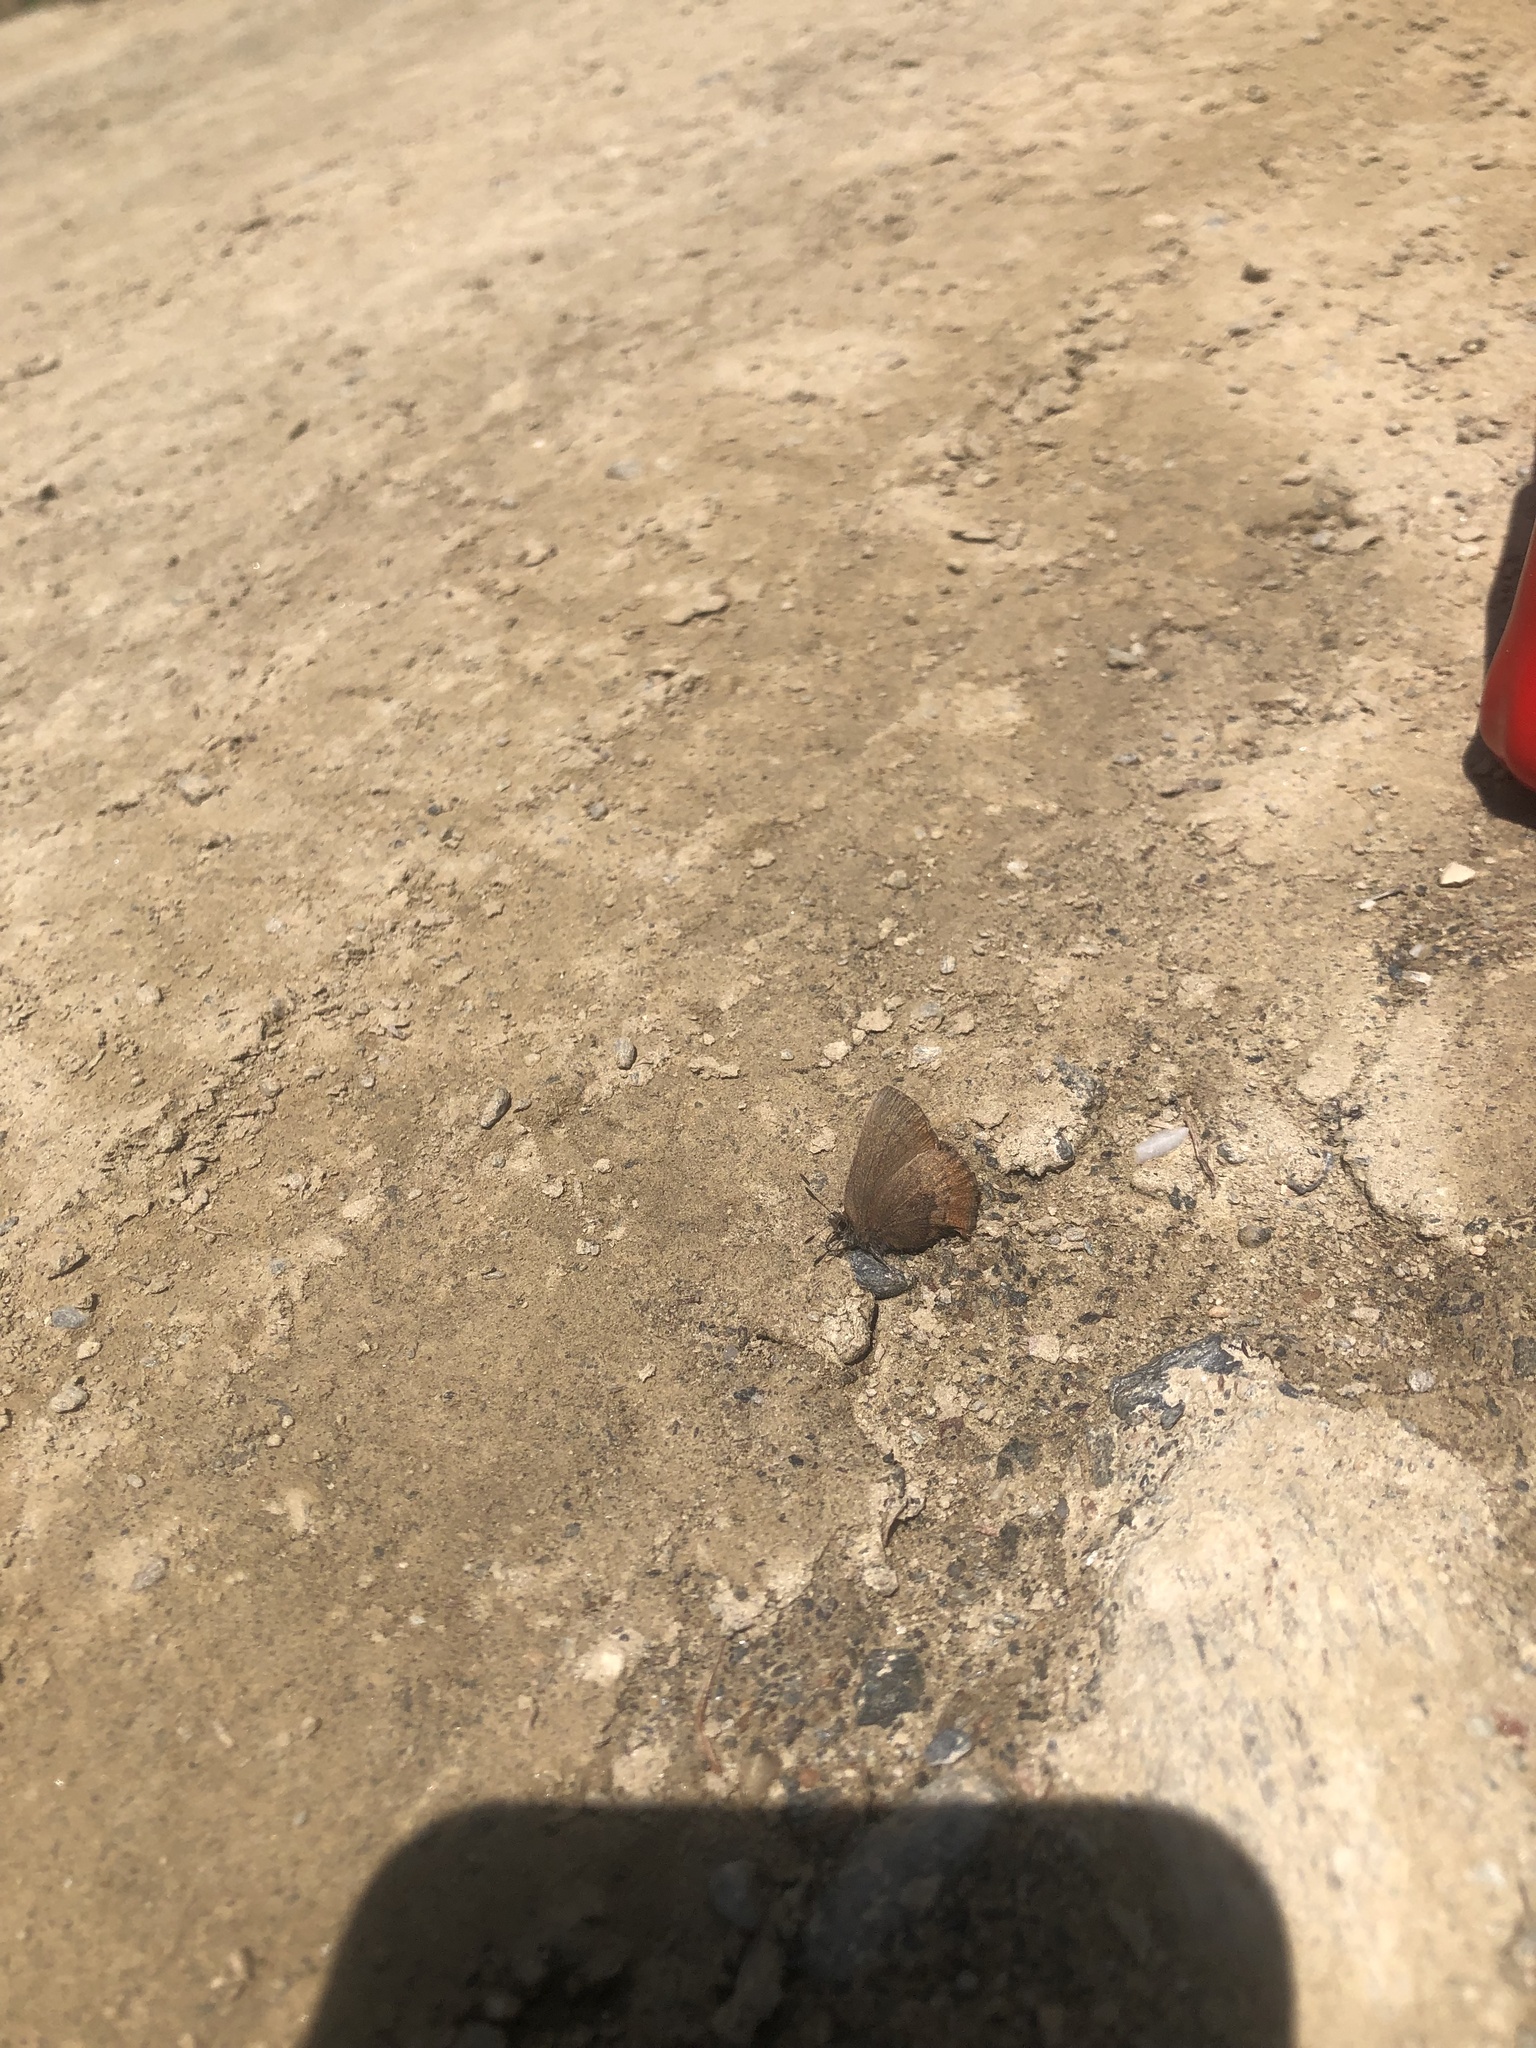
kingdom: Animalia
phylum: Arthropoda
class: Insecta
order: Lepidoptera
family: Lycaenidae
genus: Incisalia
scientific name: Incisalia irioides
